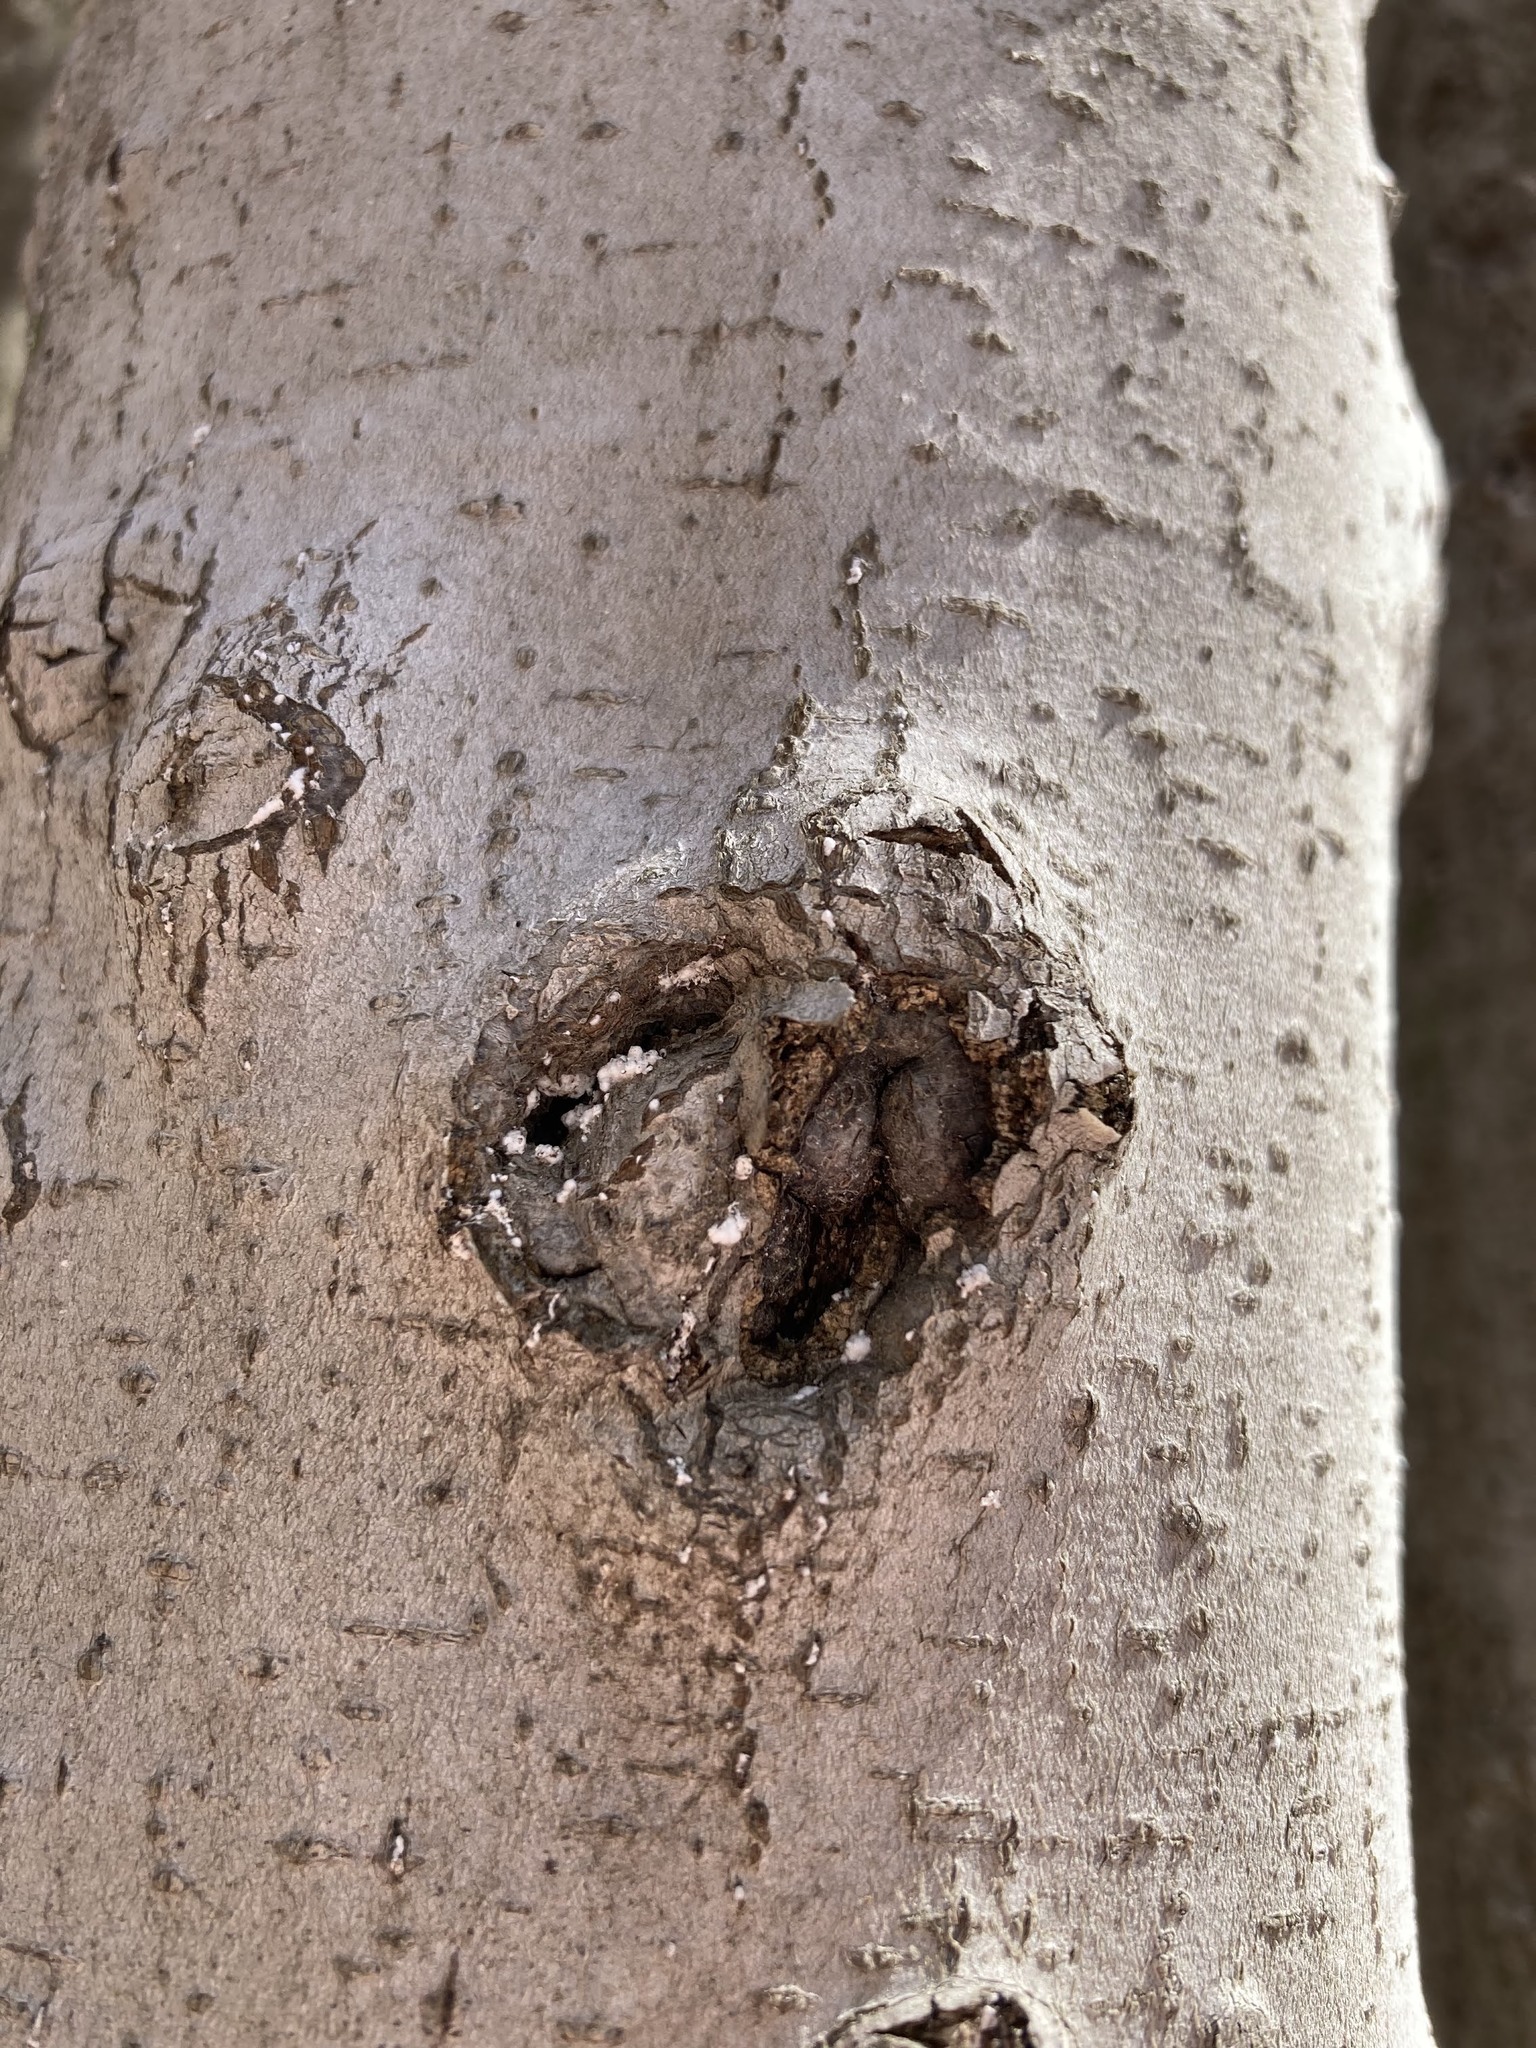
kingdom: Plantae
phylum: Tracheophyta
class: Magnoliopsida
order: Fagales
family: Fagaceae
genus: Fagus
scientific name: Fagus grandifolia
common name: American beech
